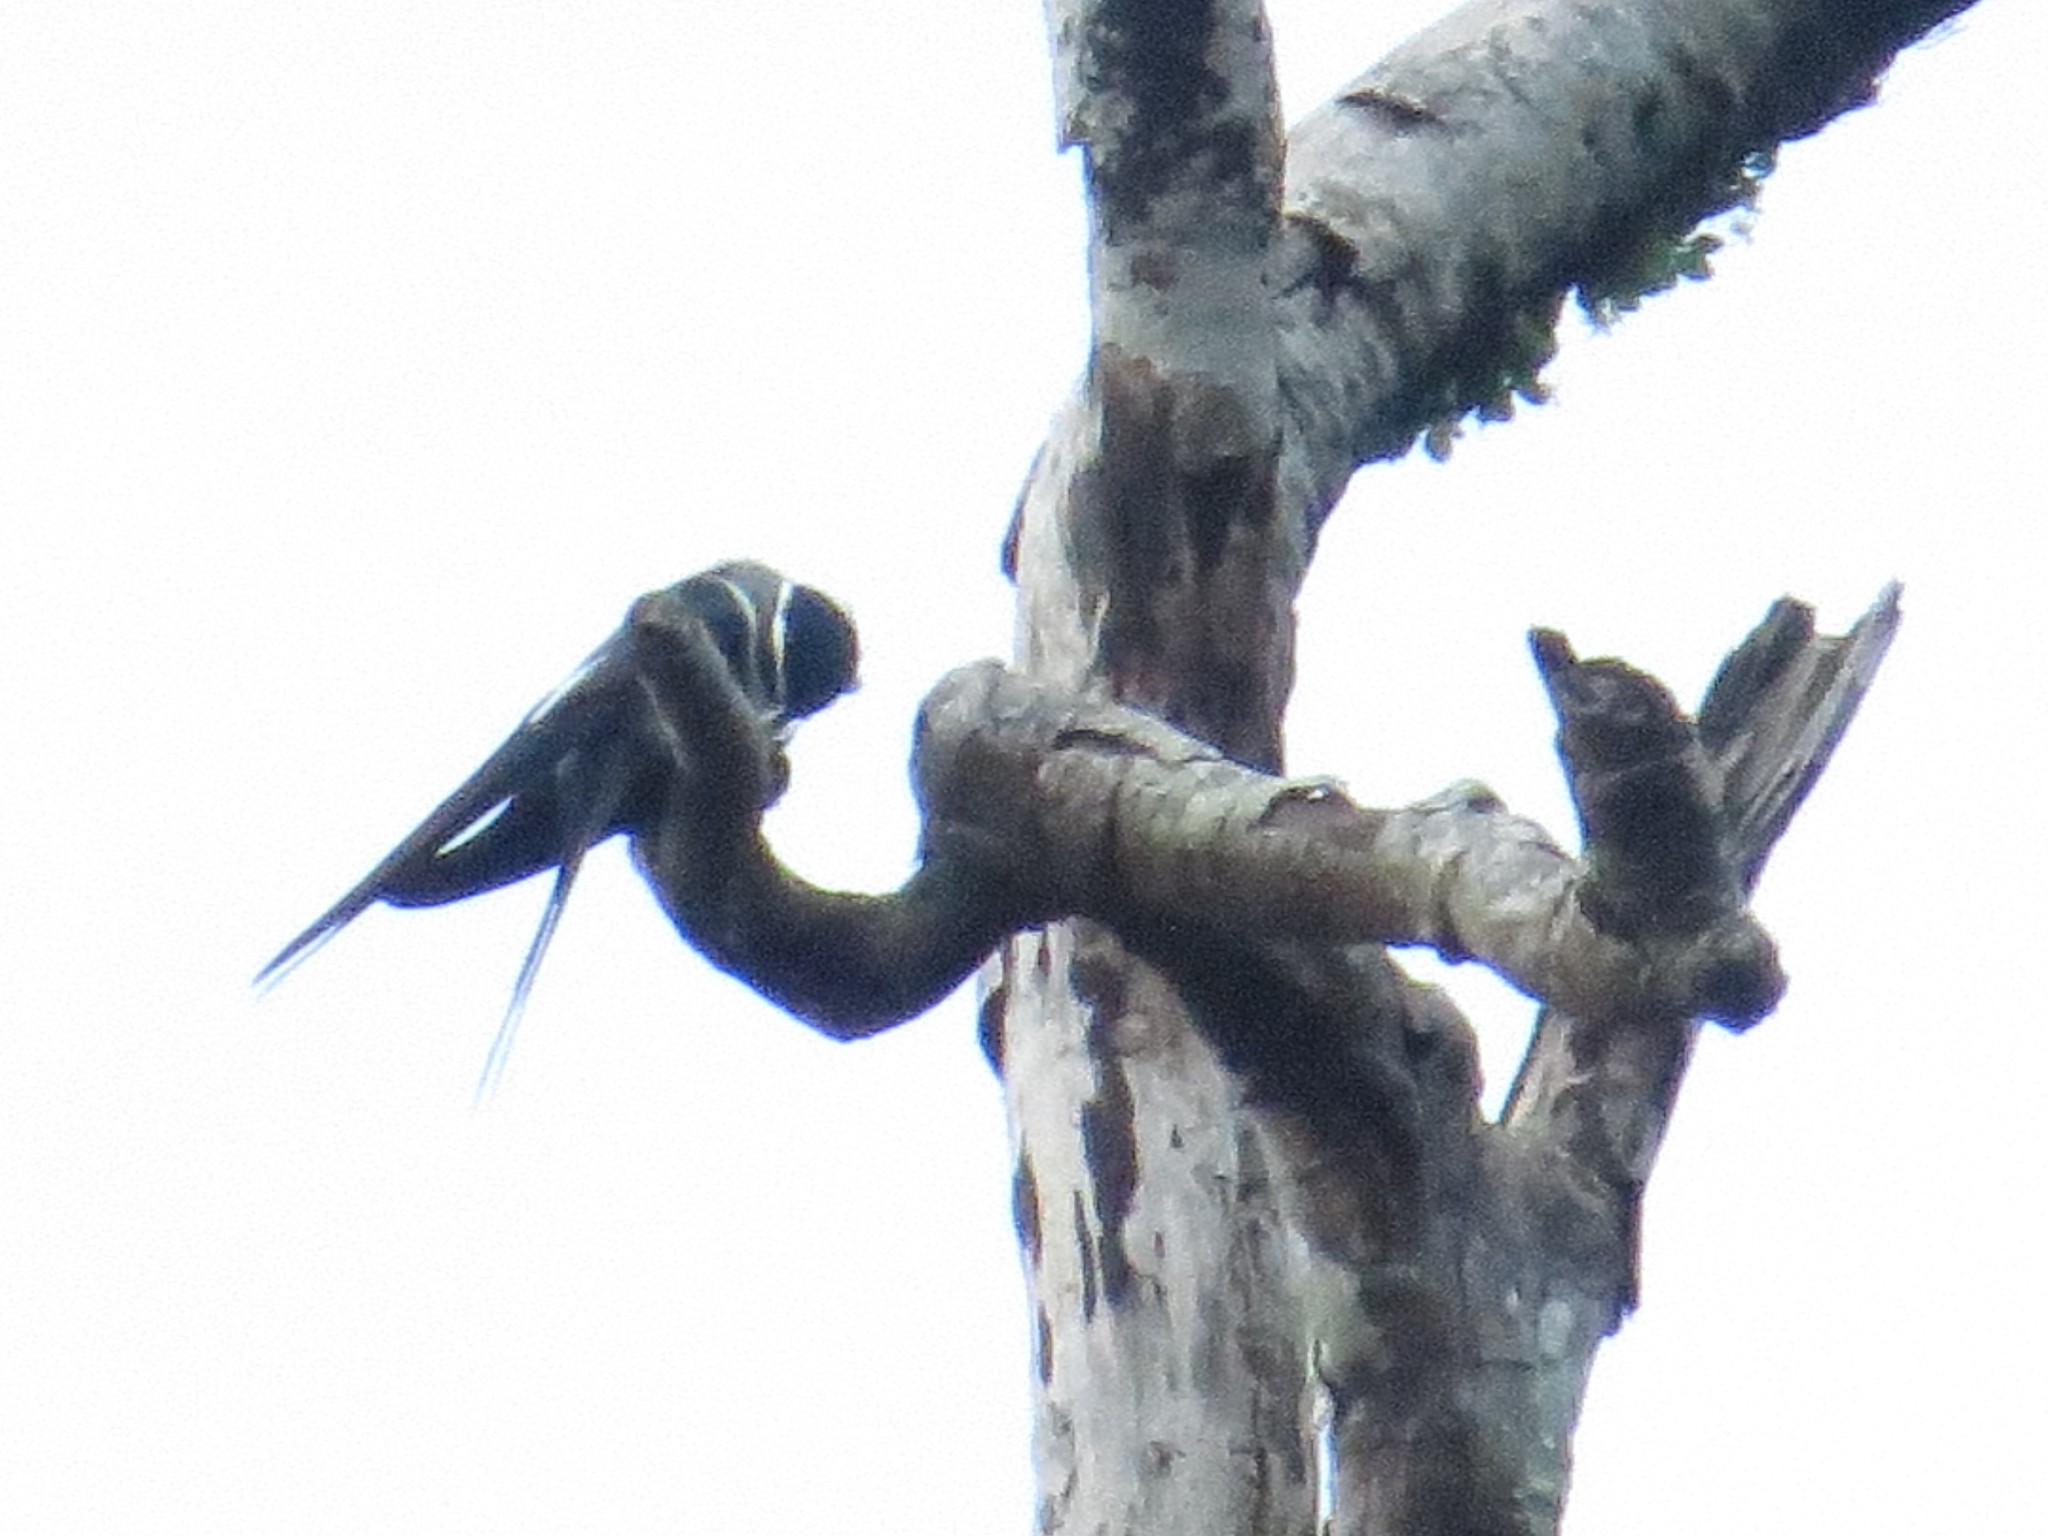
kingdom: Animalia
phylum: Chordata
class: Aves
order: Apodiformes
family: Hemiprocnidae
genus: Hemiprocne
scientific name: Hemiprocne mystacea
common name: Moustached treeswift
